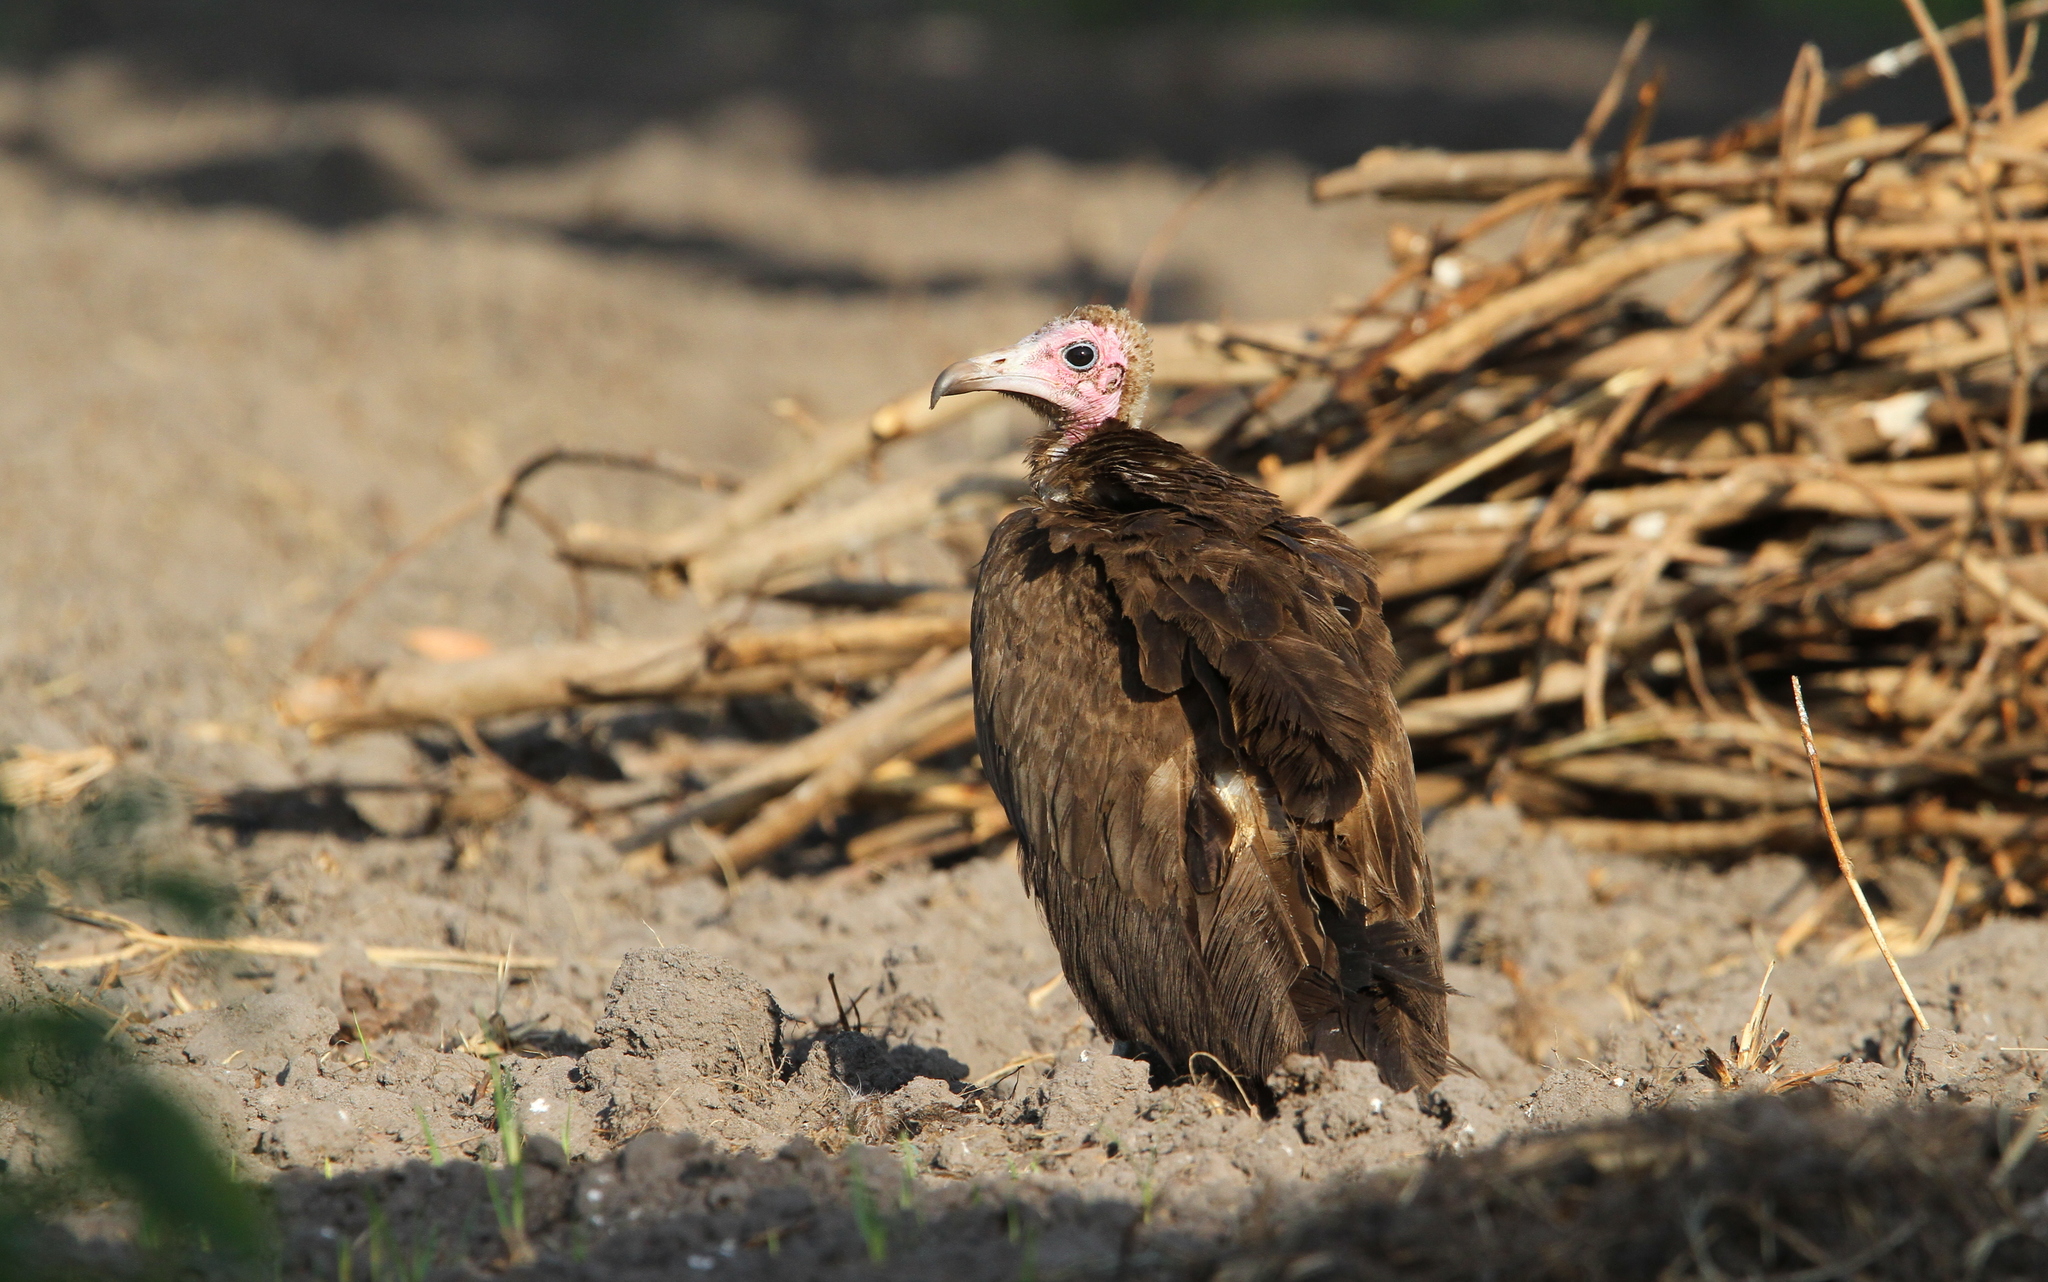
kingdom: Animalia
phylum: Chordata
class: Aves
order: Accipitriformes
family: Accipitridae
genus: Necrosyrtes
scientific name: Necrosyrtes monachus
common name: Hooded vulture
